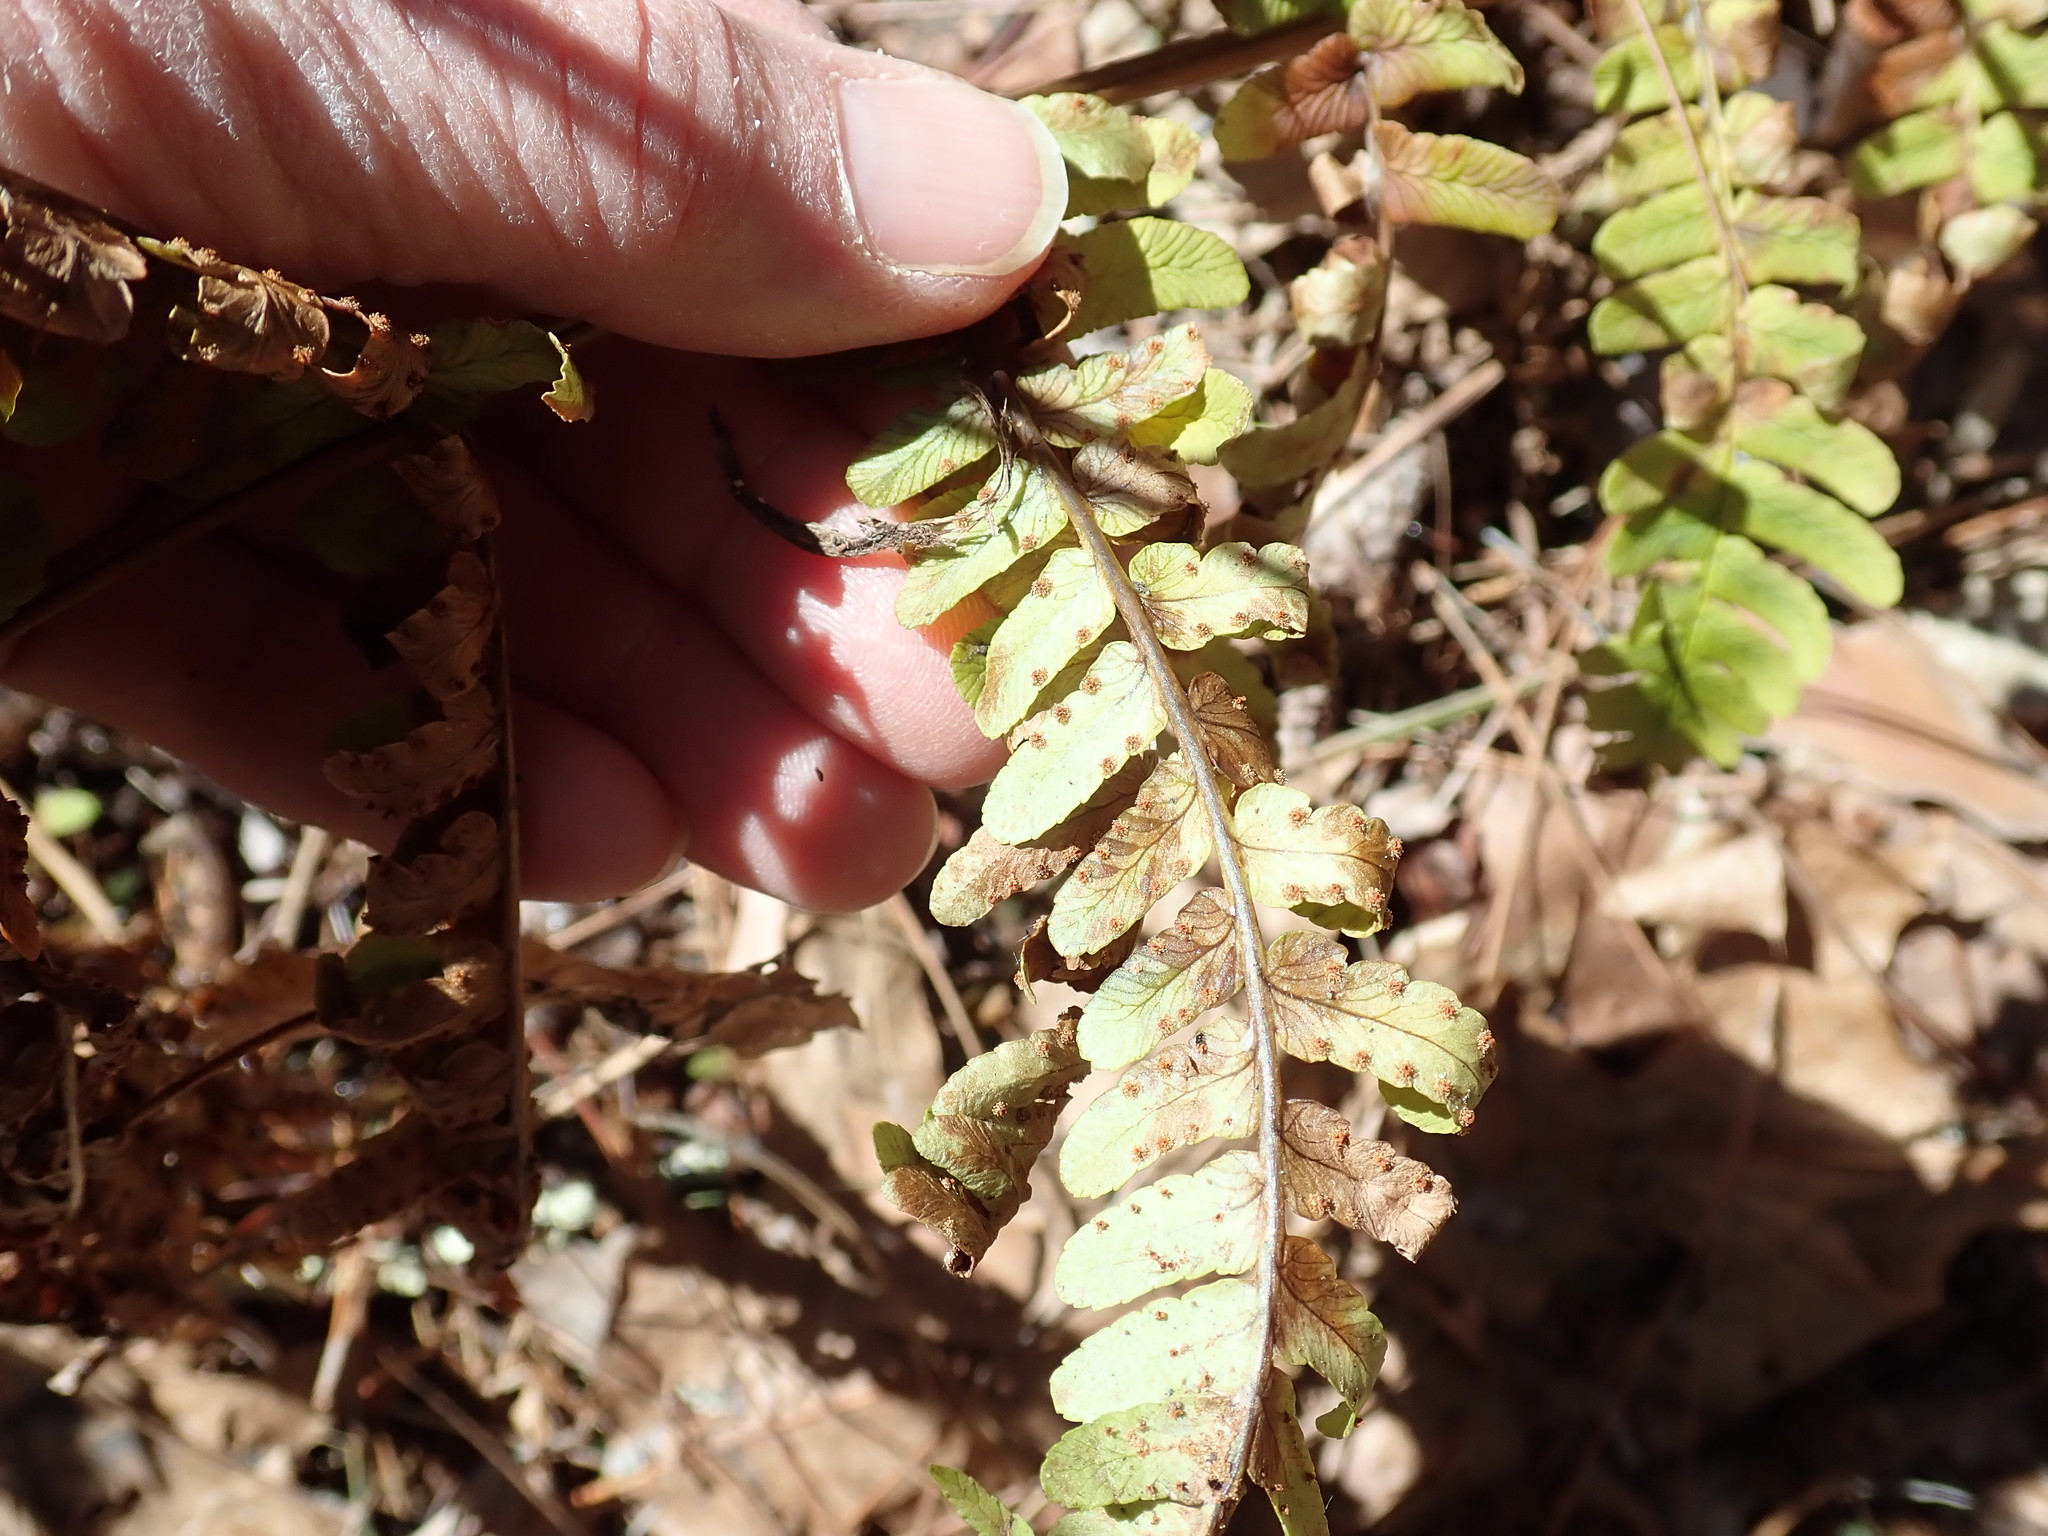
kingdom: Plantae
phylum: Tracheophyta
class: Polypodiopsida
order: Polypodiales
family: Dryopteridaceae
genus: Dryopteris
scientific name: Dryopteris marginalis
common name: Marginal wood fern
